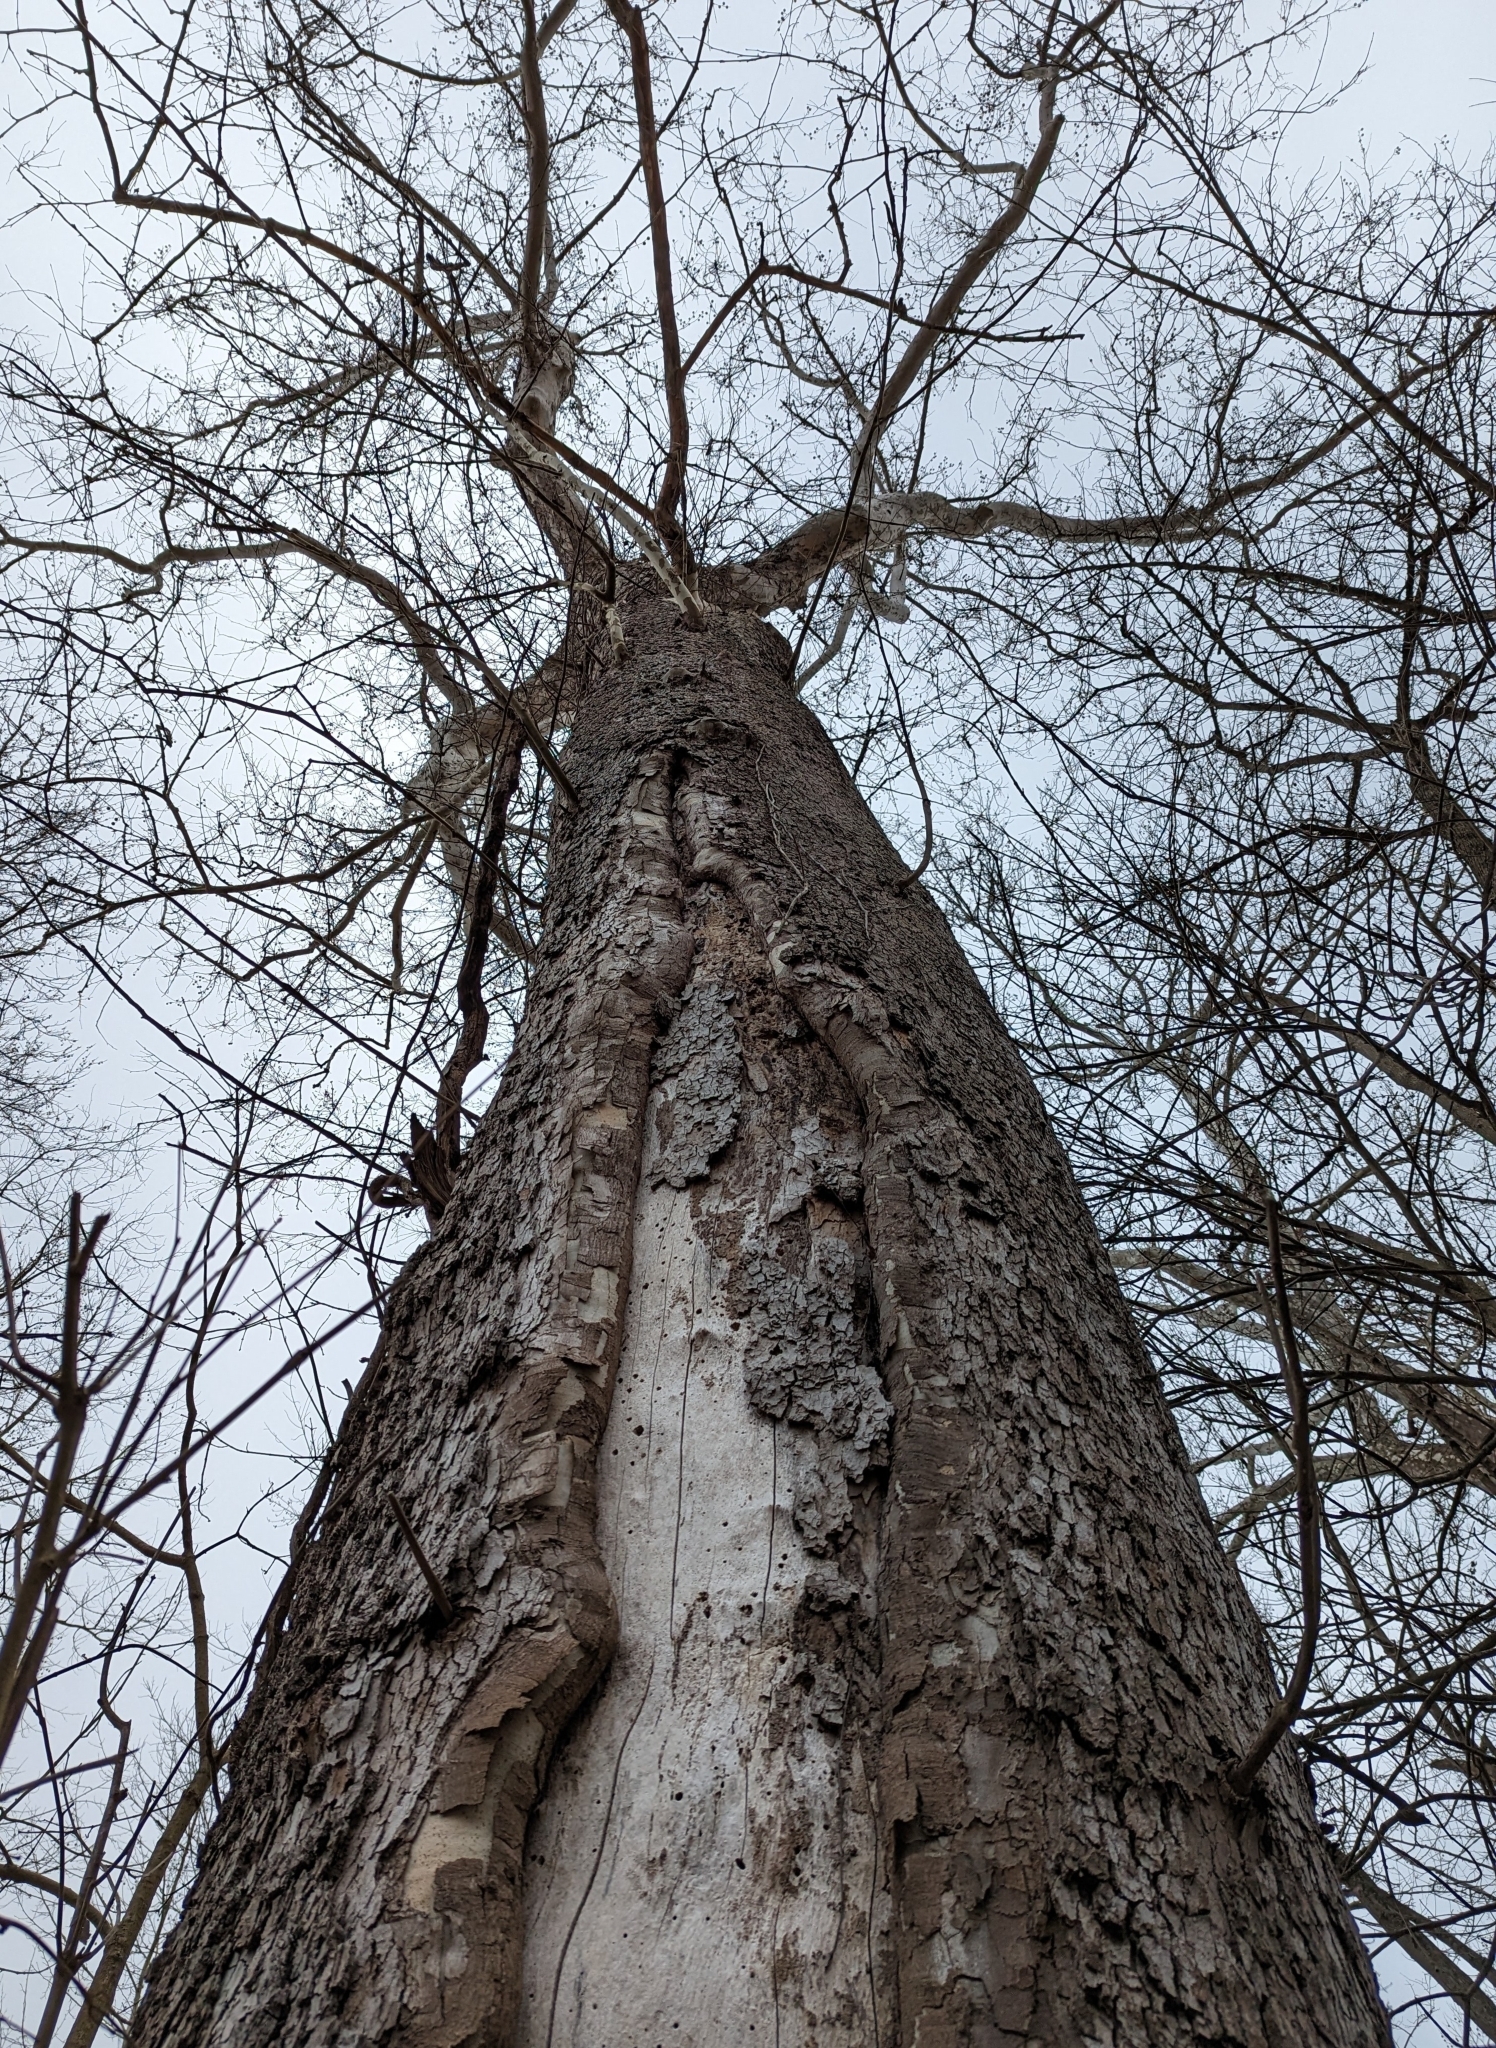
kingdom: Plantae
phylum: Tracheophyta
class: Magnoliopsida
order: Proteales
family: Platanaceae
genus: Platanus
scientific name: Platanus occidentalis
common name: American sycamore
